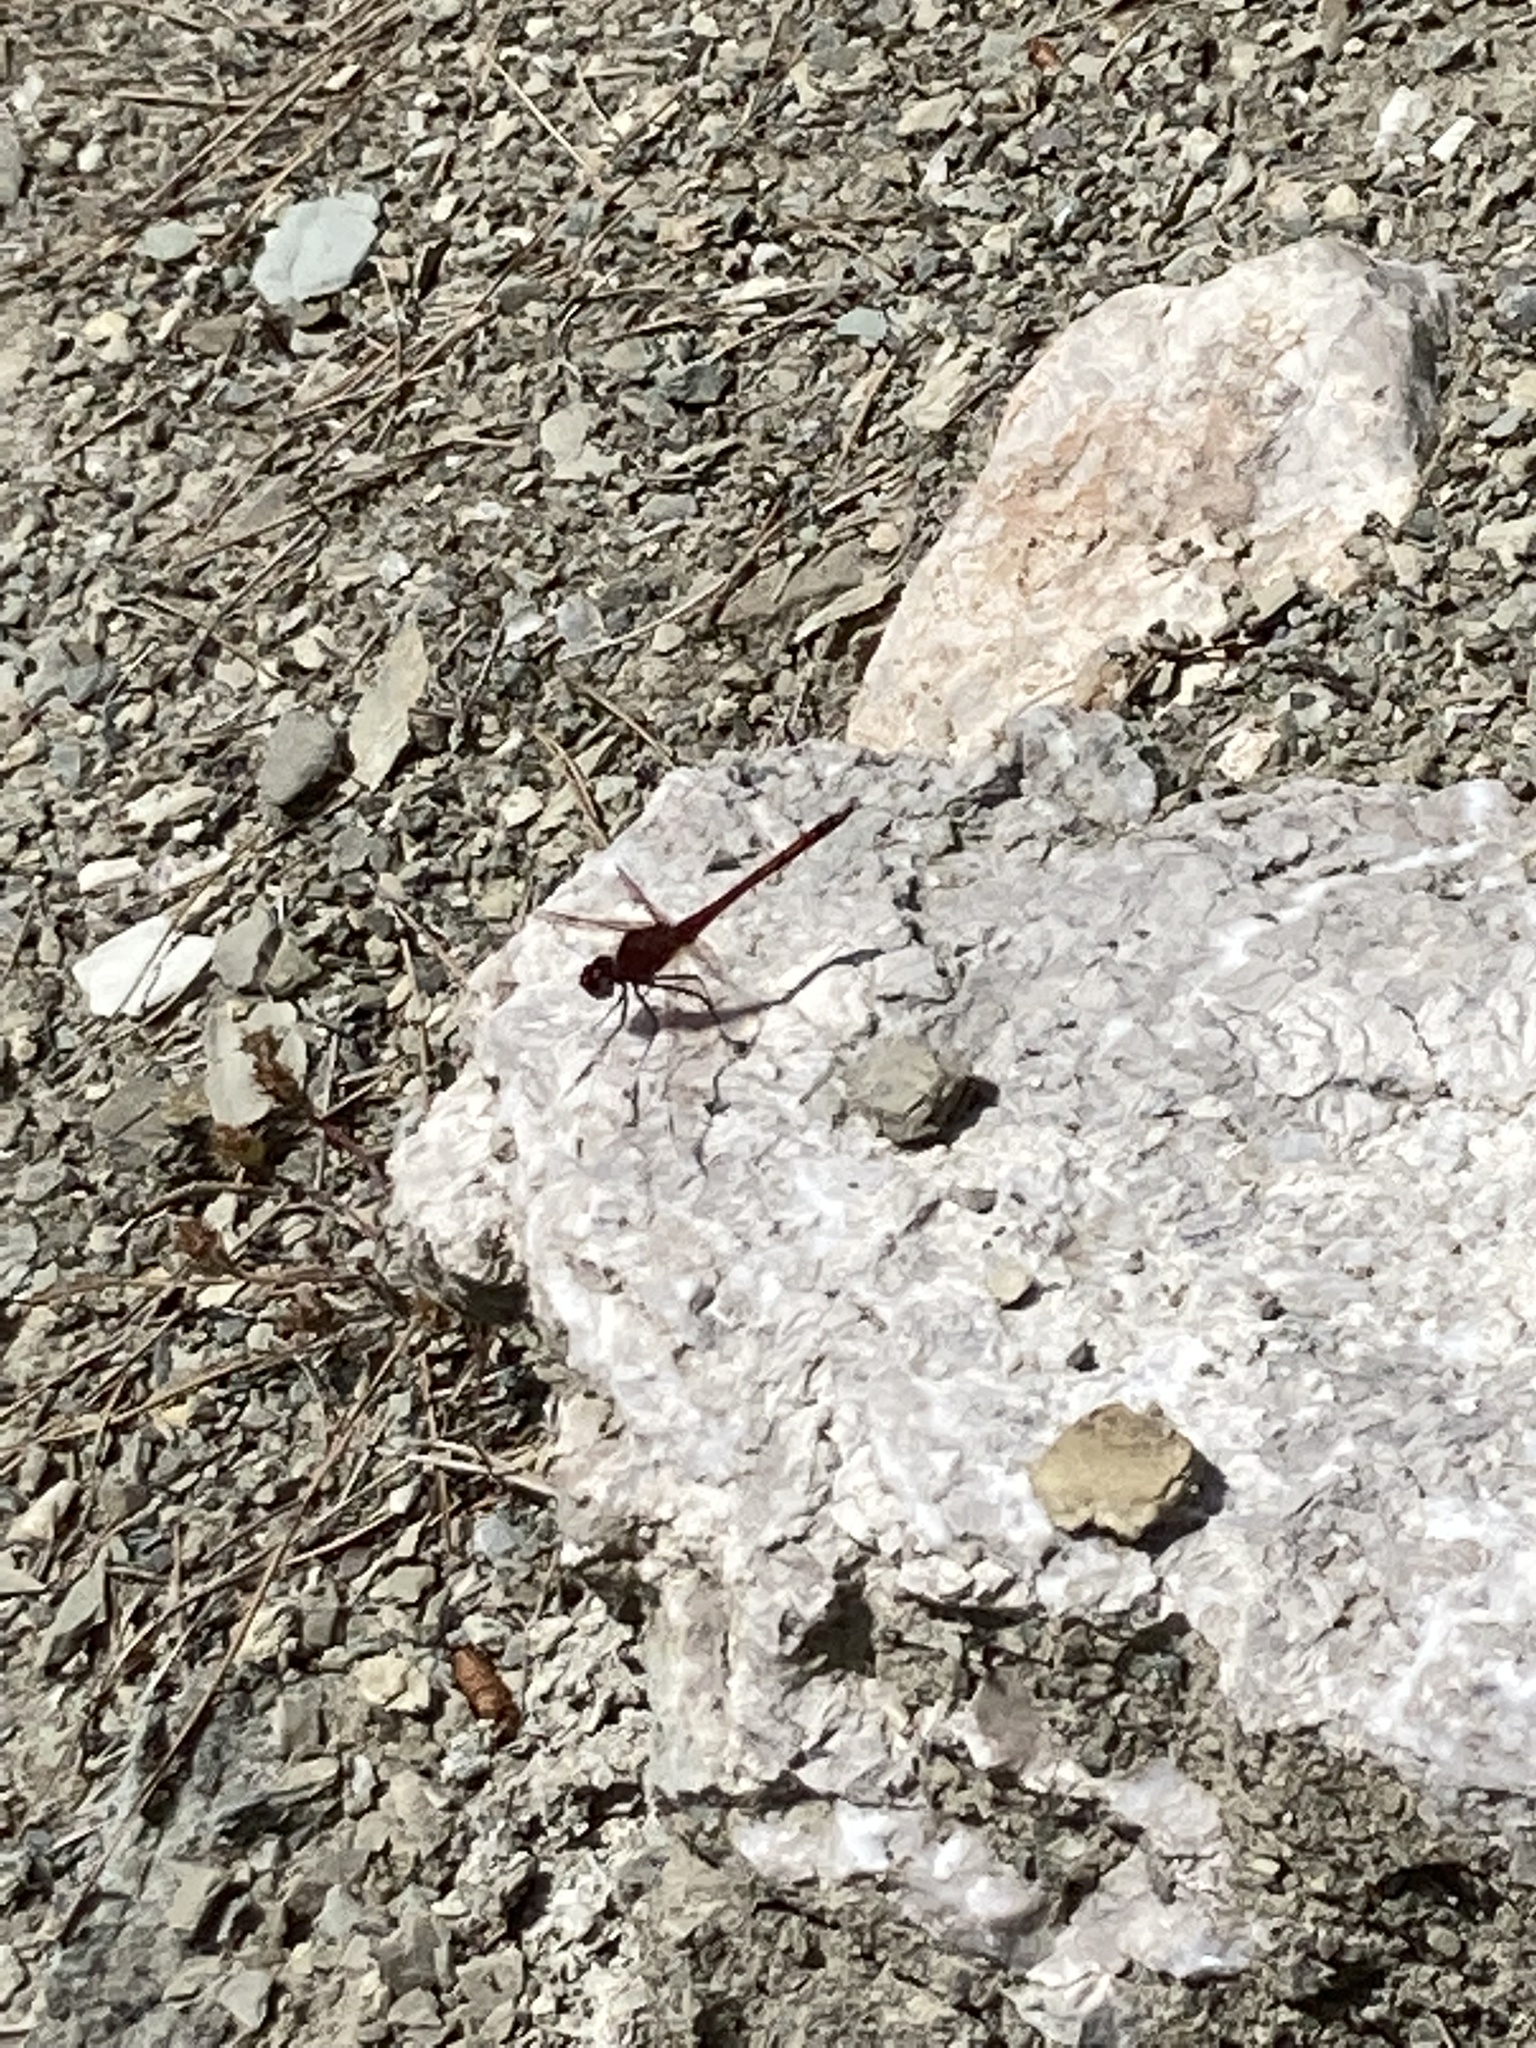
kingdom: Animalia
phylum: Arthropoda
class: Insecta
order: Odonata
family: Libellulidae
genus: Trithemis
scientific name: Trithemis arteriosa
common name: Red-veined dropwing
